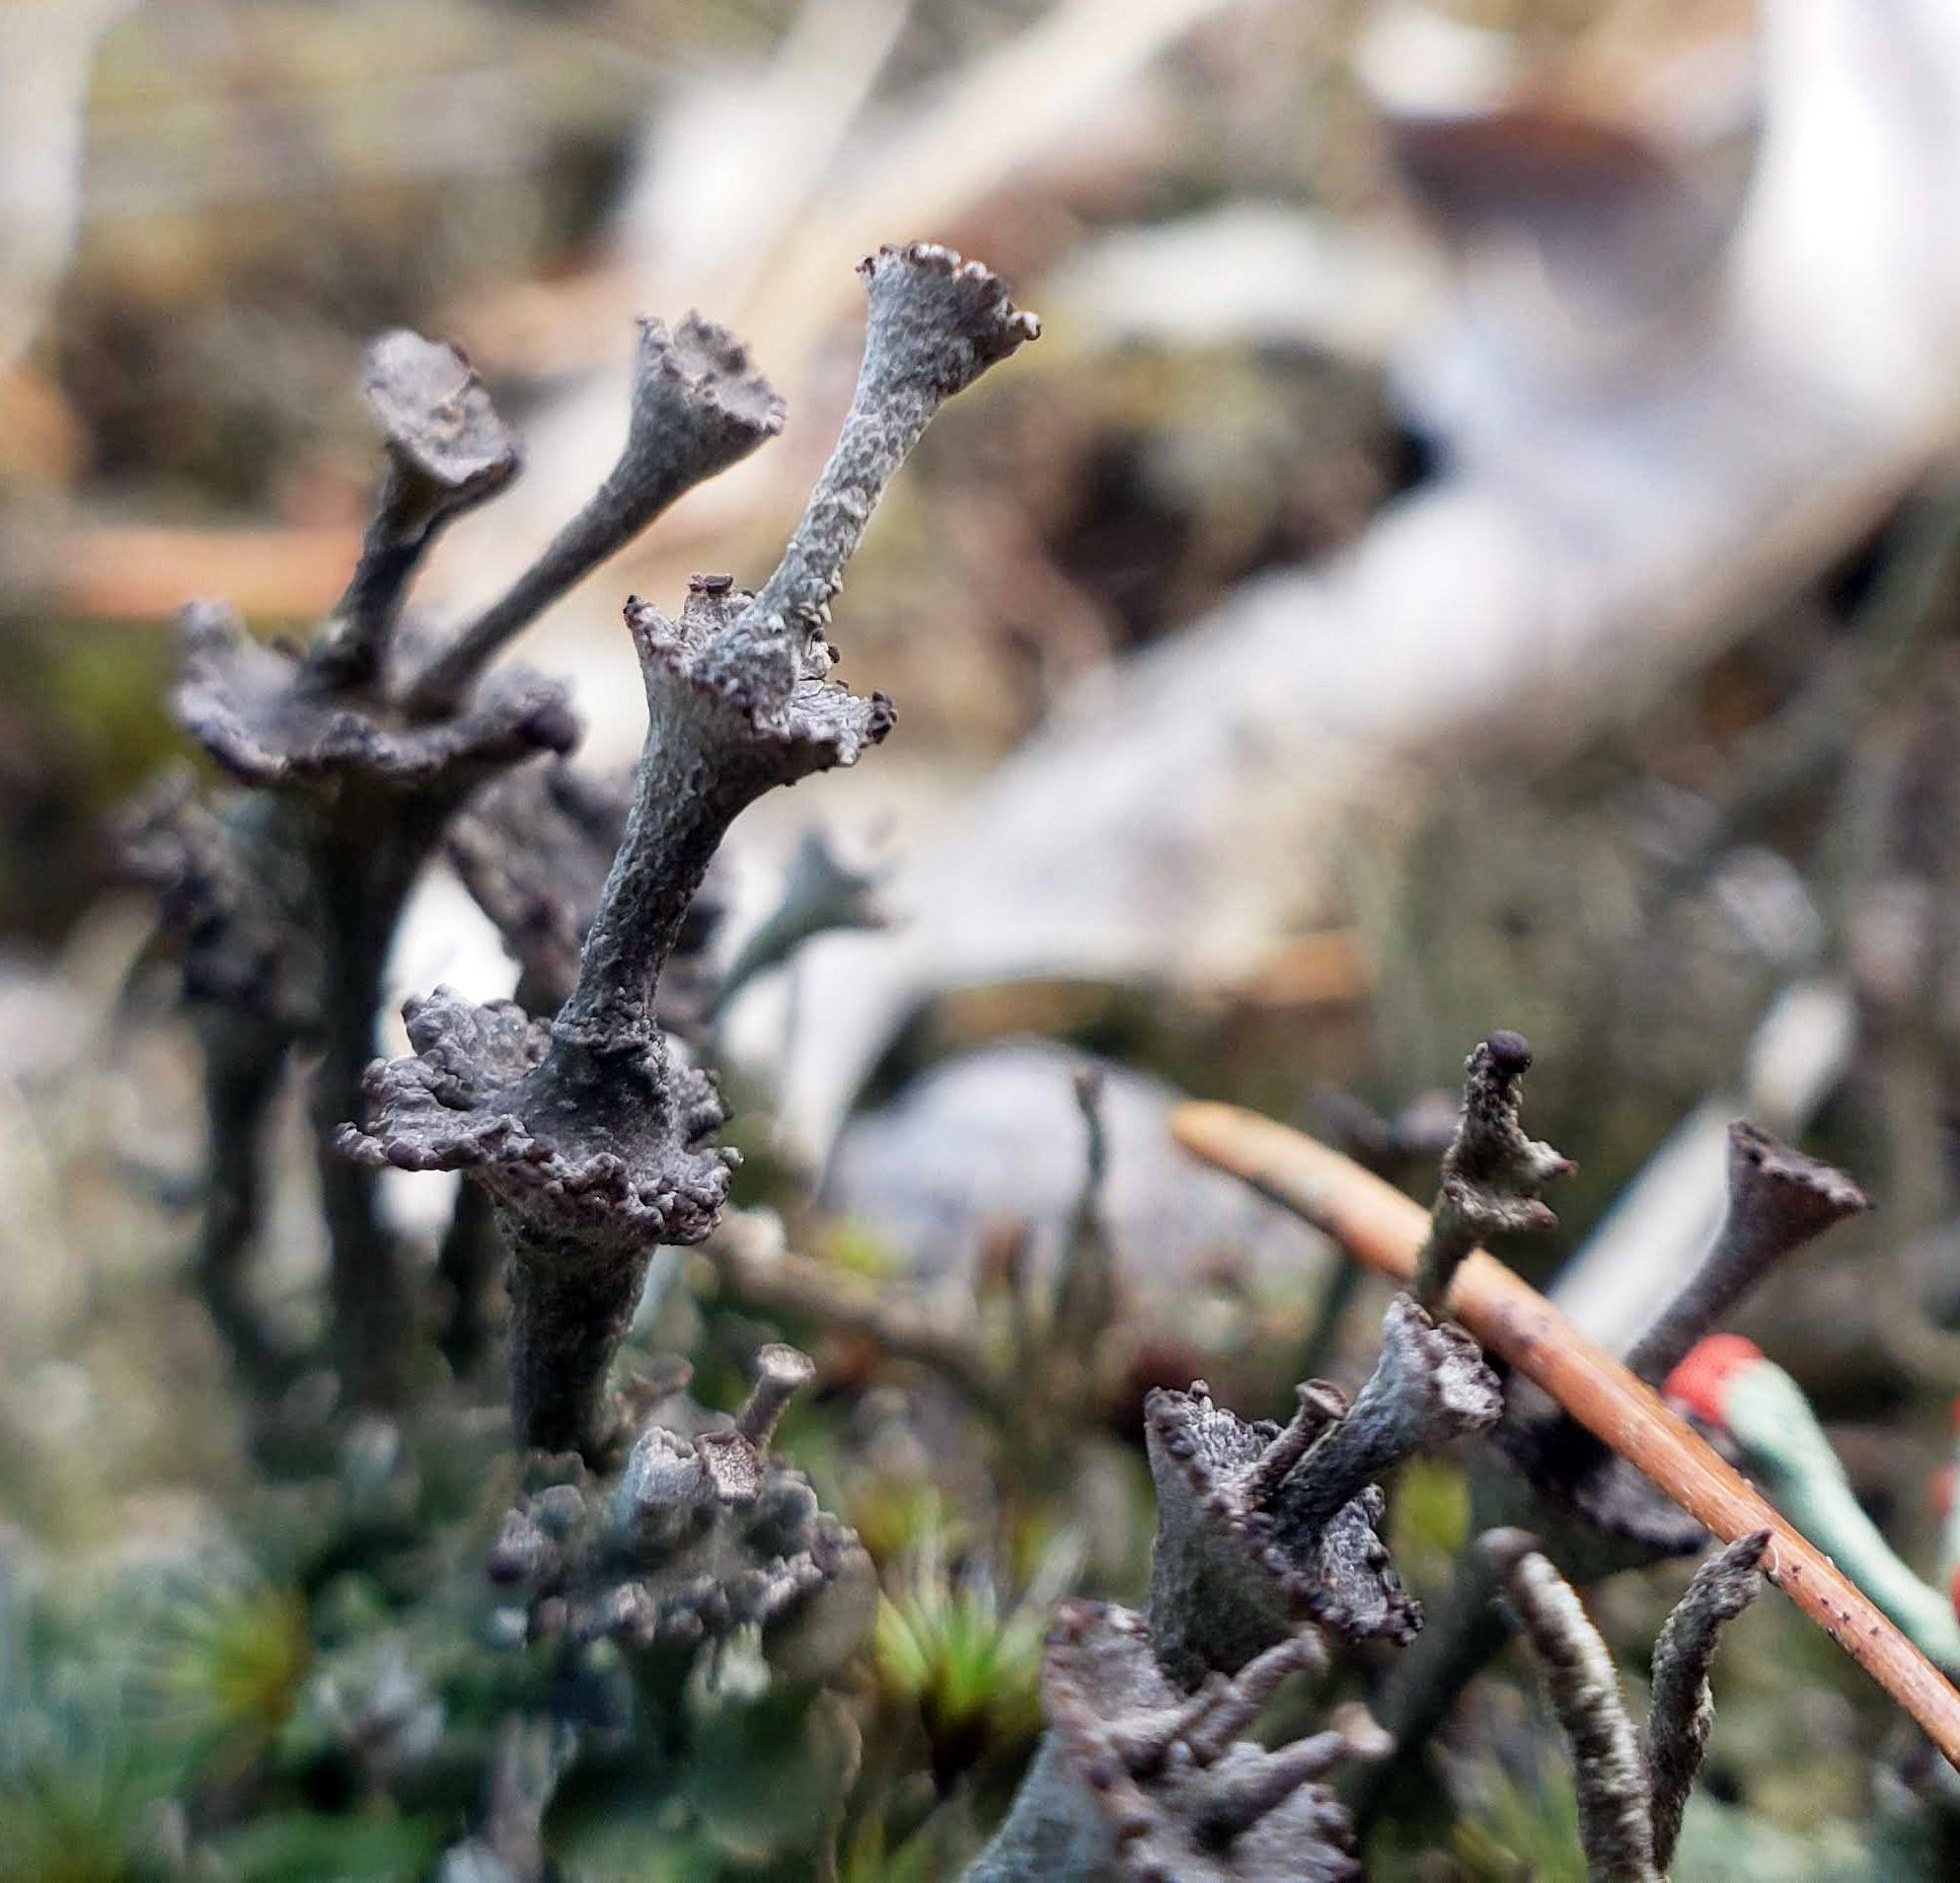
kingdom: Fungi
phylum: Ascomycota
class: Lecanoromycetes
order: Lecanorales
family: Cladoniaceae
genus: Cladonia
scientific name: Cladonia cervicornis
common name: Browned pixie-cup lichen
